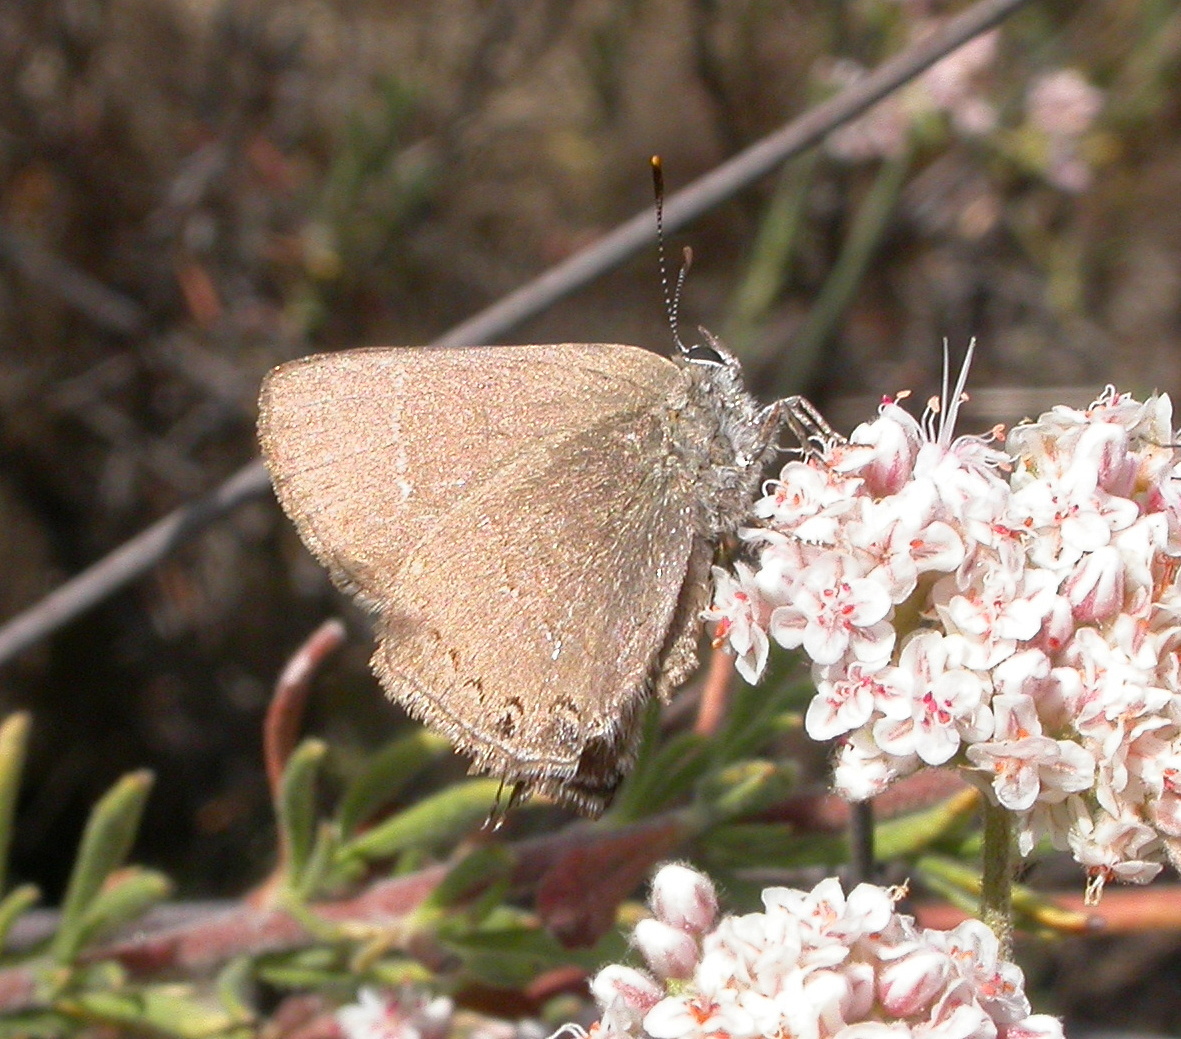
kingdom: Animalia
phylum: Arthropoda
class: Insecta
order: Lepidoptera
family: Lycaenidae
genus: Thecla
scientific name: Thecla tetra
